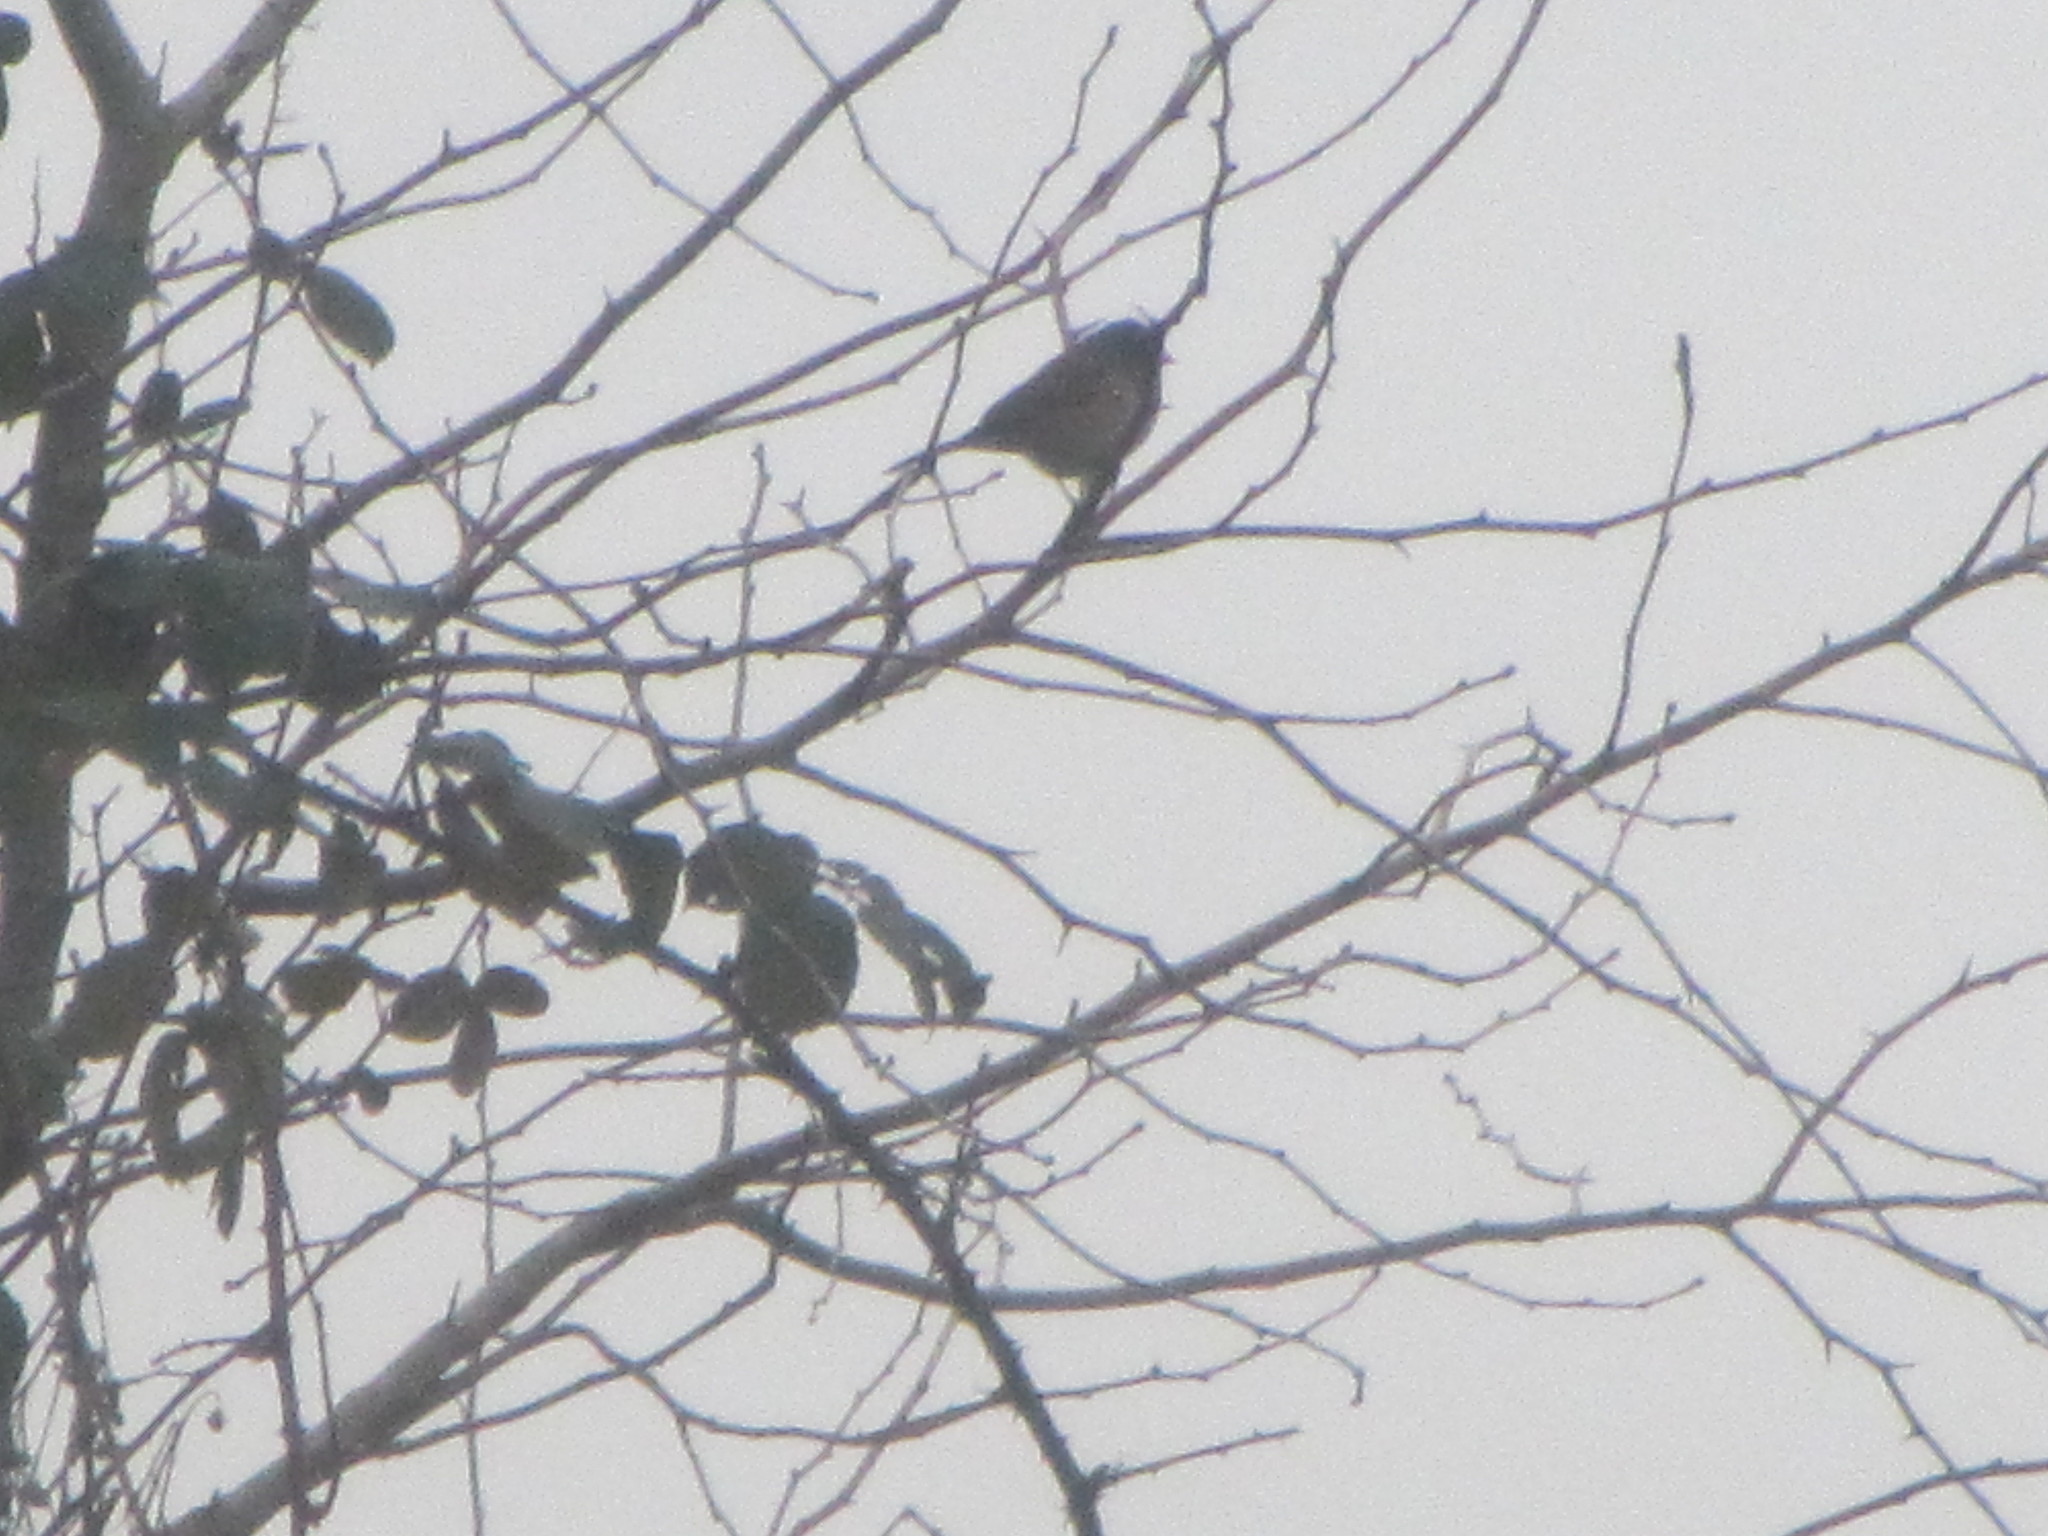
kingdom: Animalia
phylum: Chordata
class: Aves
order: Passeriformes
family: Passerellidae
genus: Junco
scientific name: Junco hyemalis
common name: Dark-eyed junco
